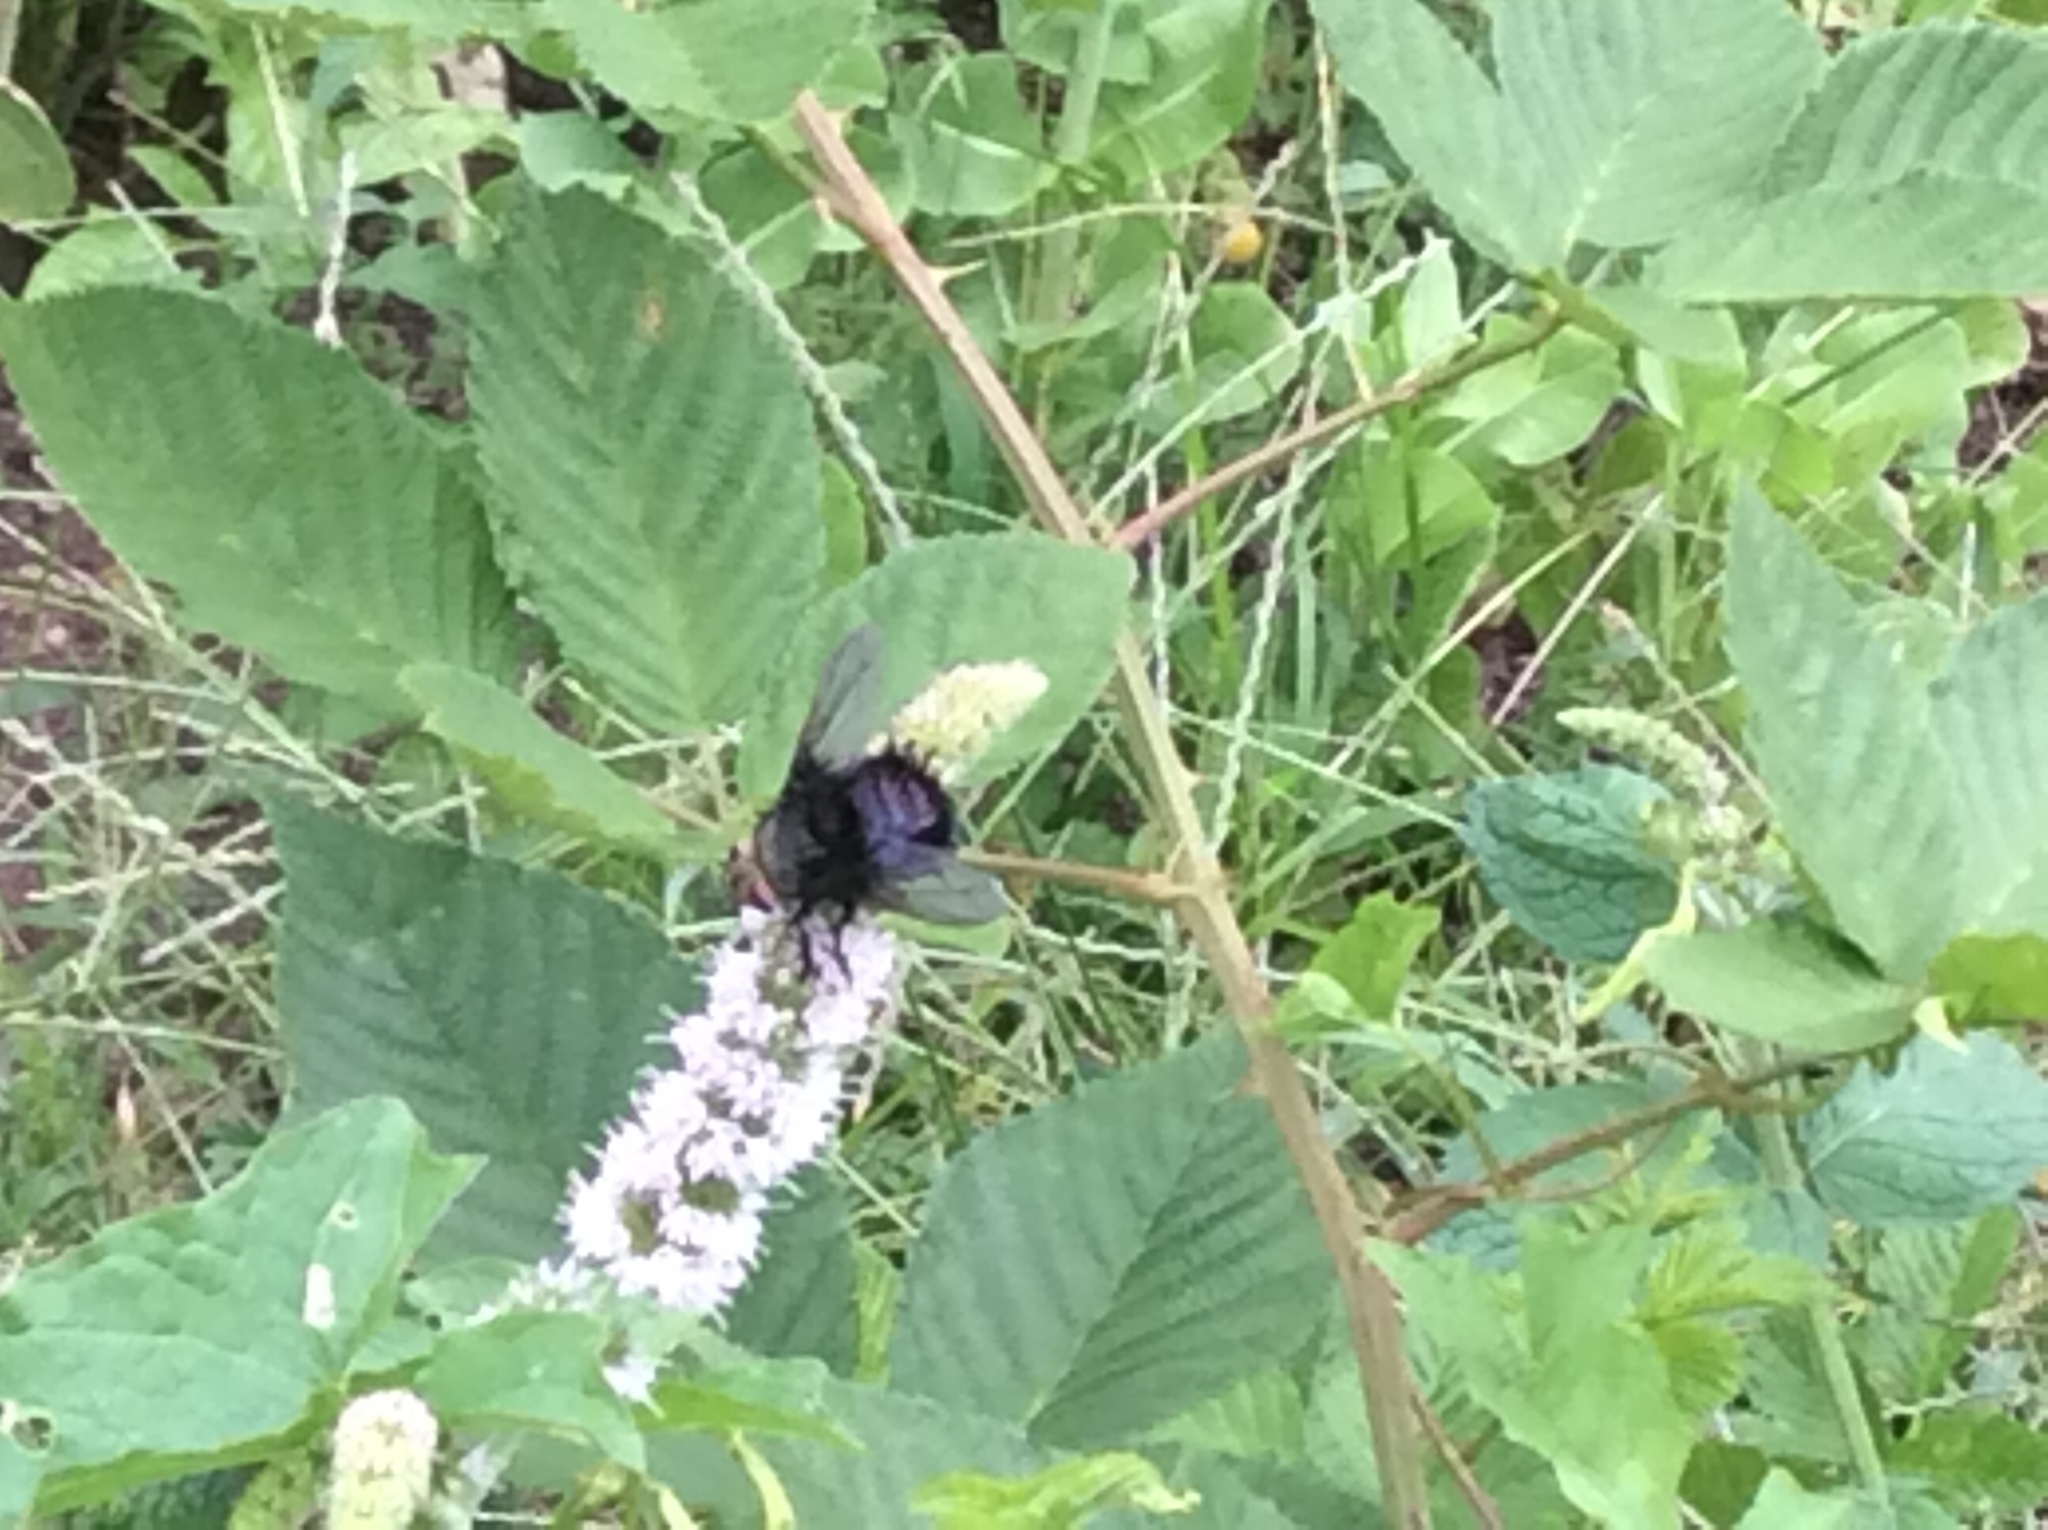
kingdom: Animalia
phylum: Arthropoda
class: Insecta
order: Diptera
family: Tachinidae
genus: Juriniopsis
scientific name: Juriniopsis adusta
